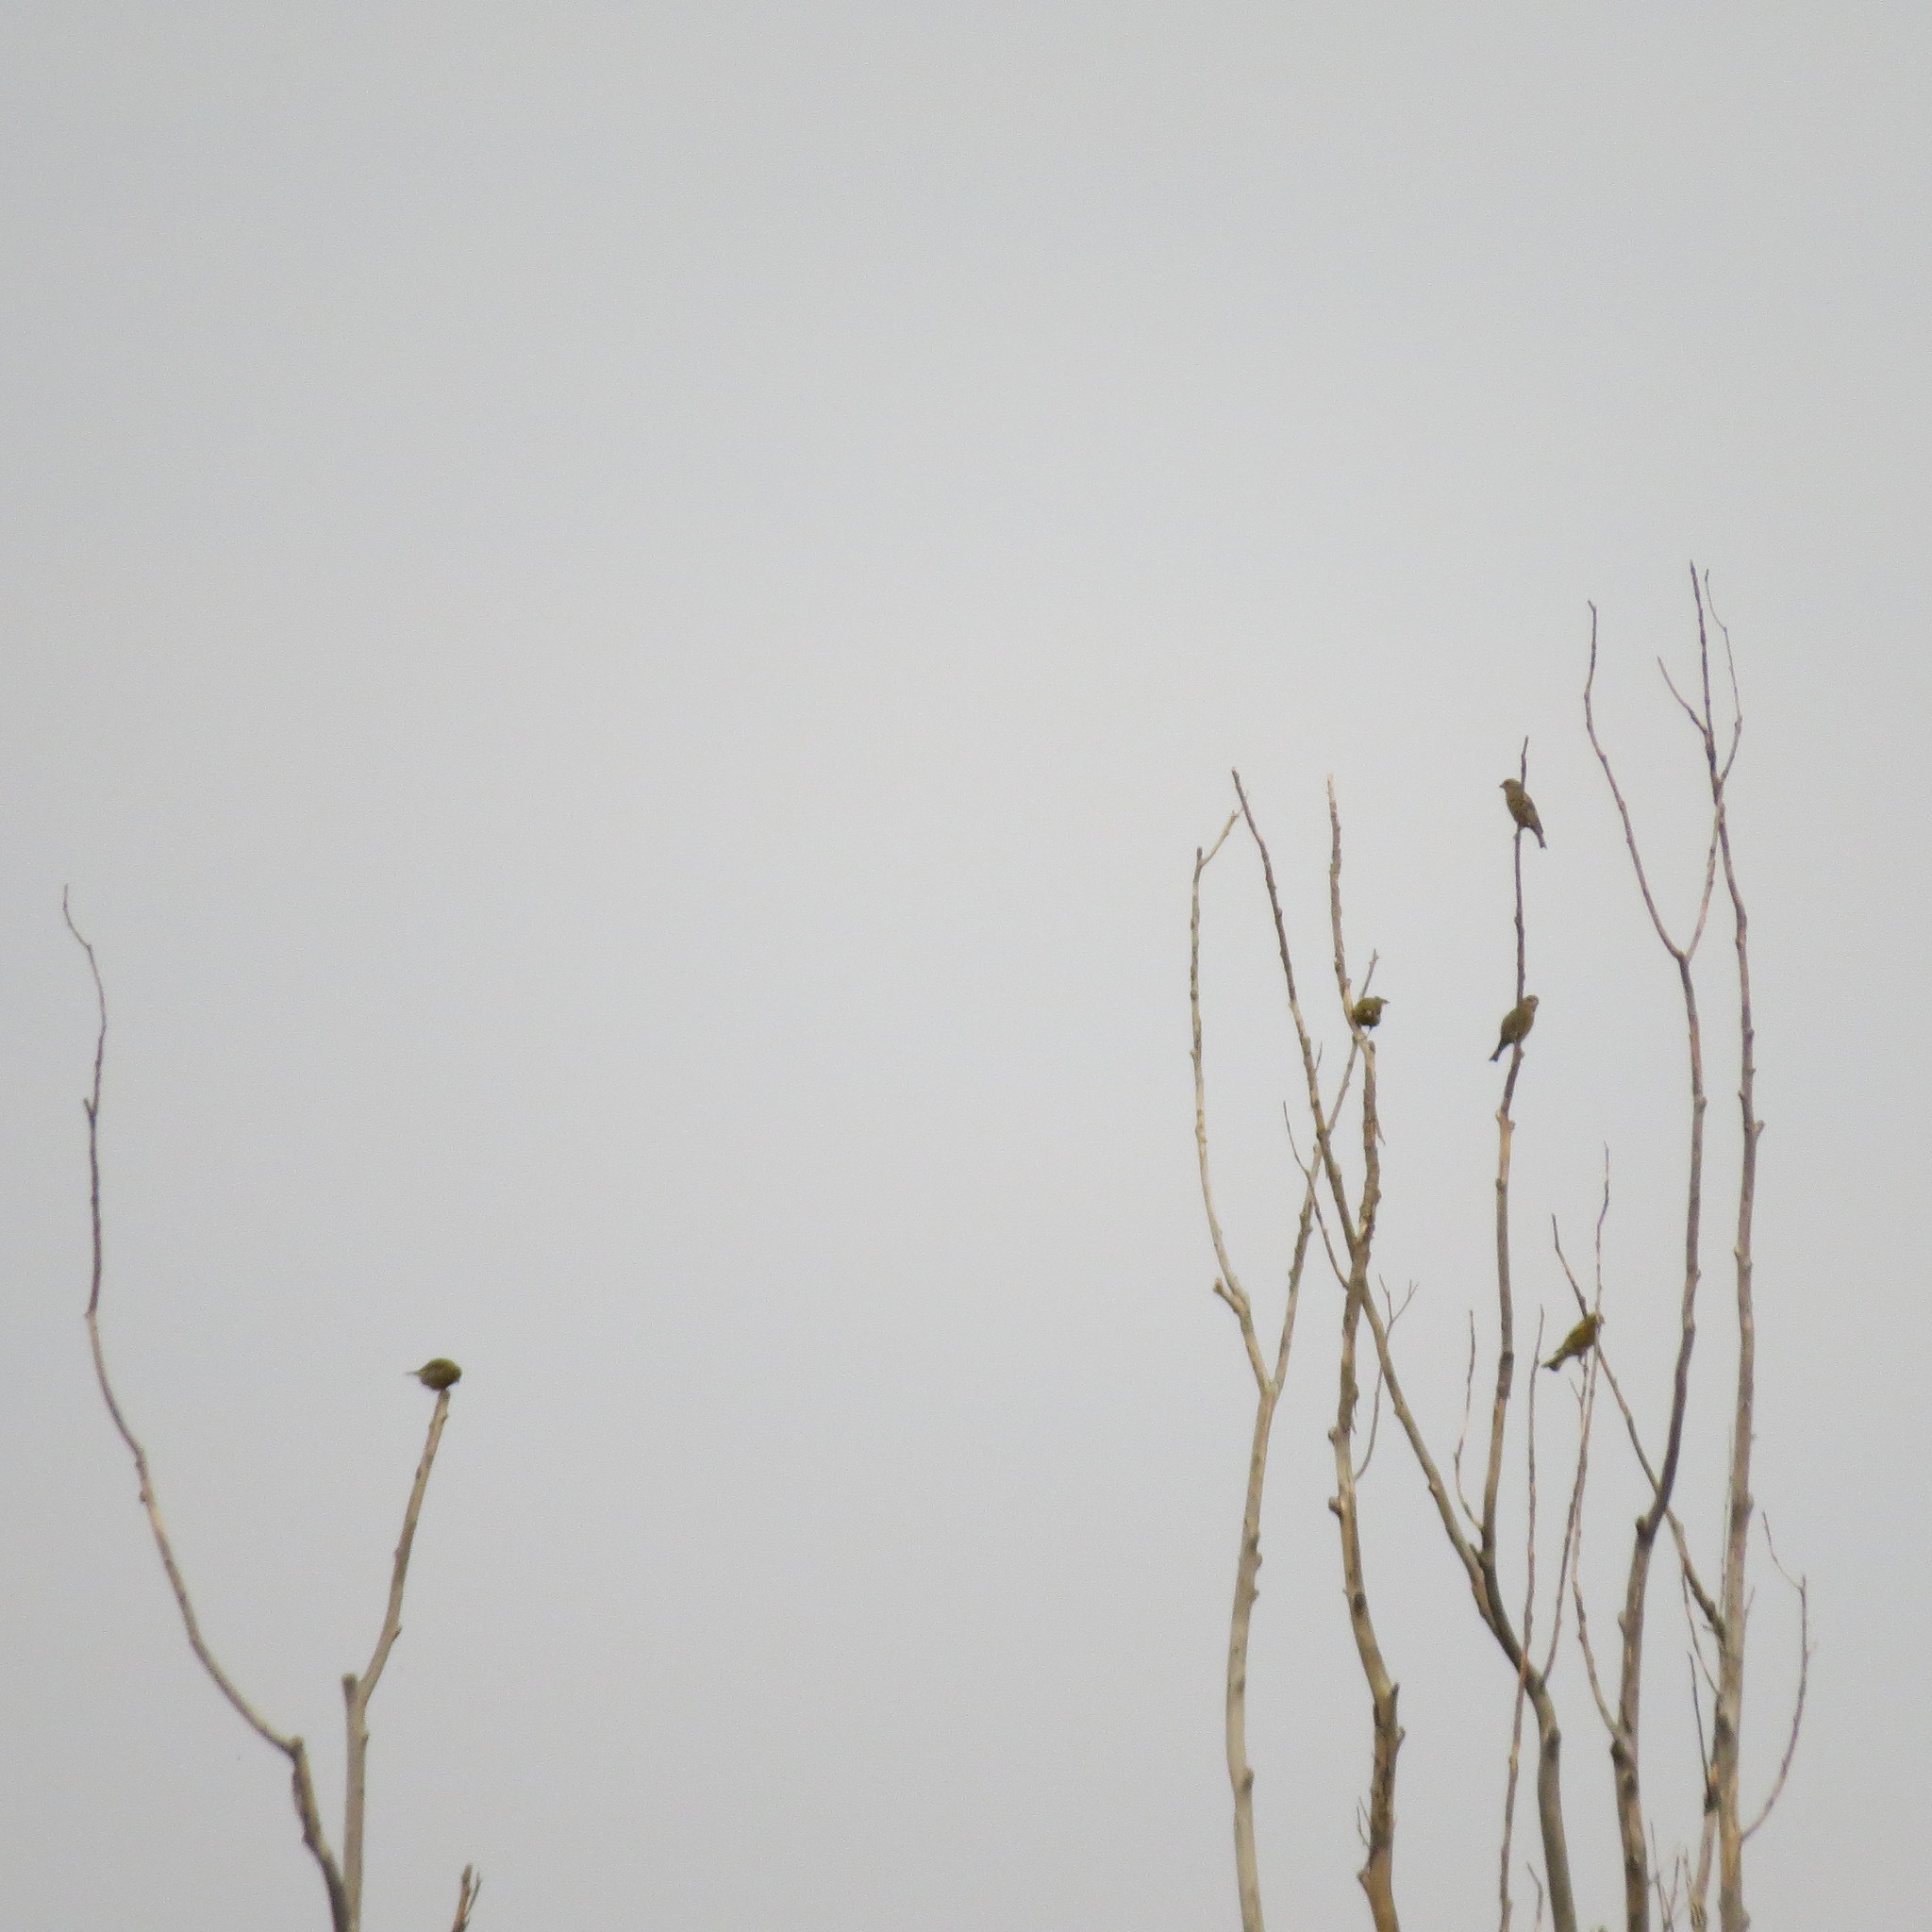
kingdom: Plantae
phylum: Tracheophyta
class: Liliopsida
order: Poales
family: Poaceae
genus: Chloris
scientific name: Chloris chloris
